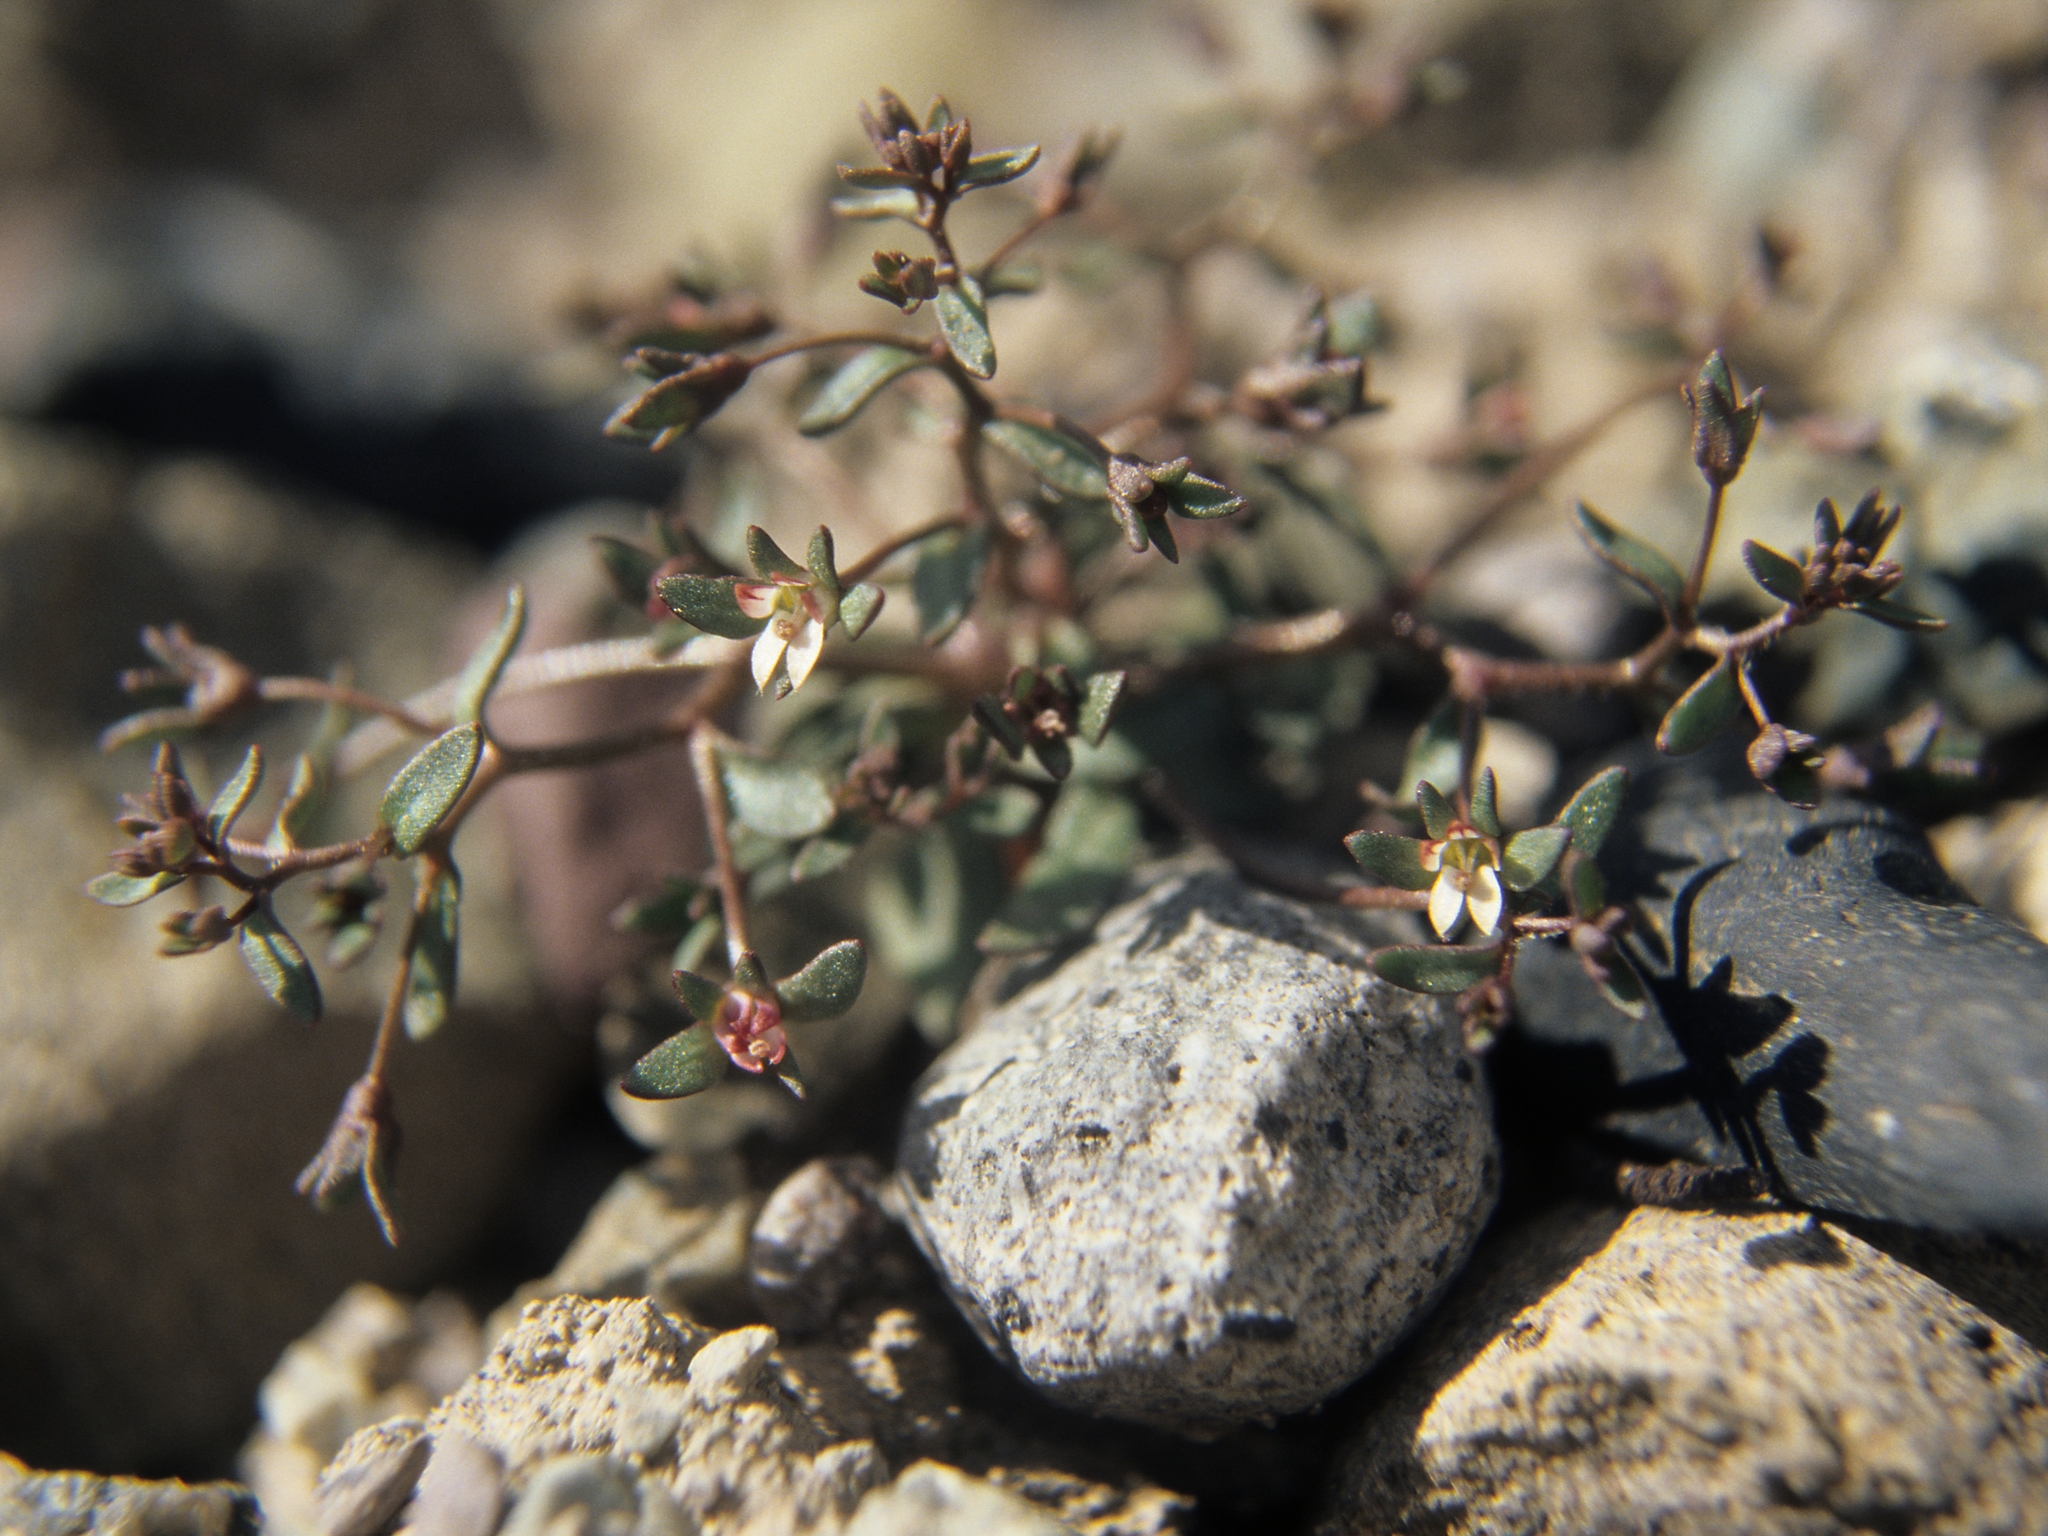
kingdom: Plantae
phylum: Tracheophyta
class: Magnoliopsida
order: Asterales
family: Campanulaceae
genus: Nemacladus
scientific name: Nemacladus rigidus
